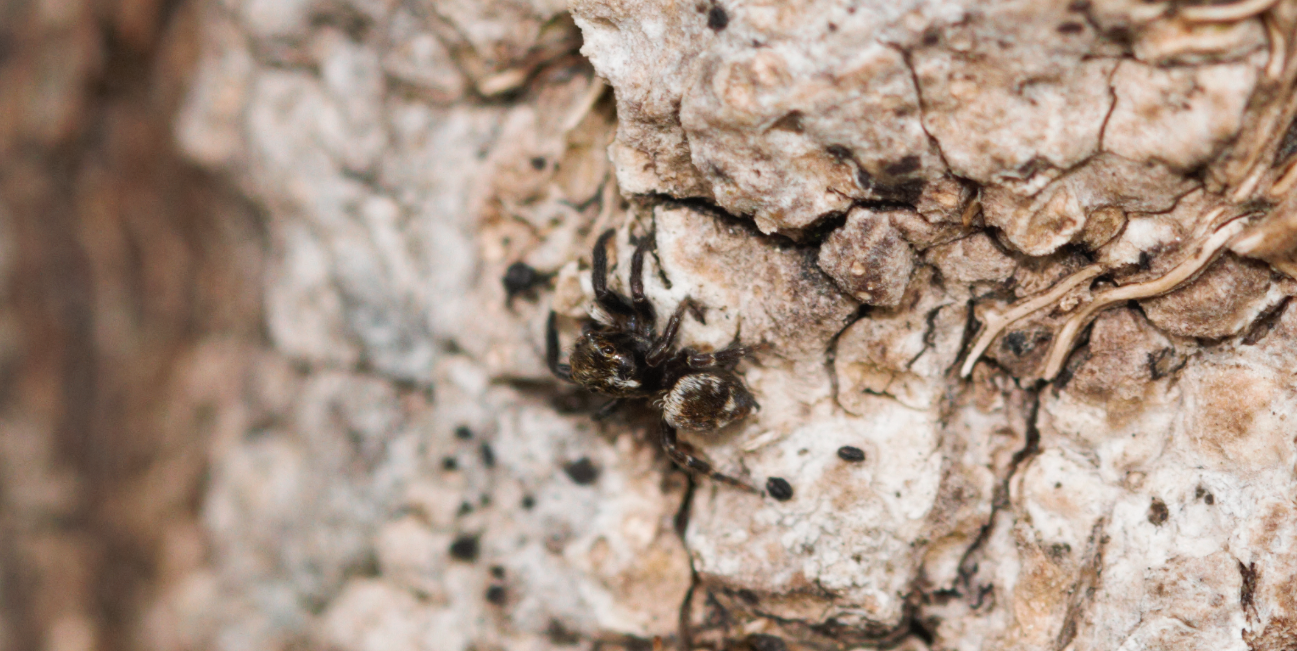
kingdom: Animalia
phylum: Arthropoda
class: Arachnida
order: Araneae
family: Salticidae
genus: Pseudeuophrys
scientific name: Pseudeuophrys erratica
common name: Jumping spider
